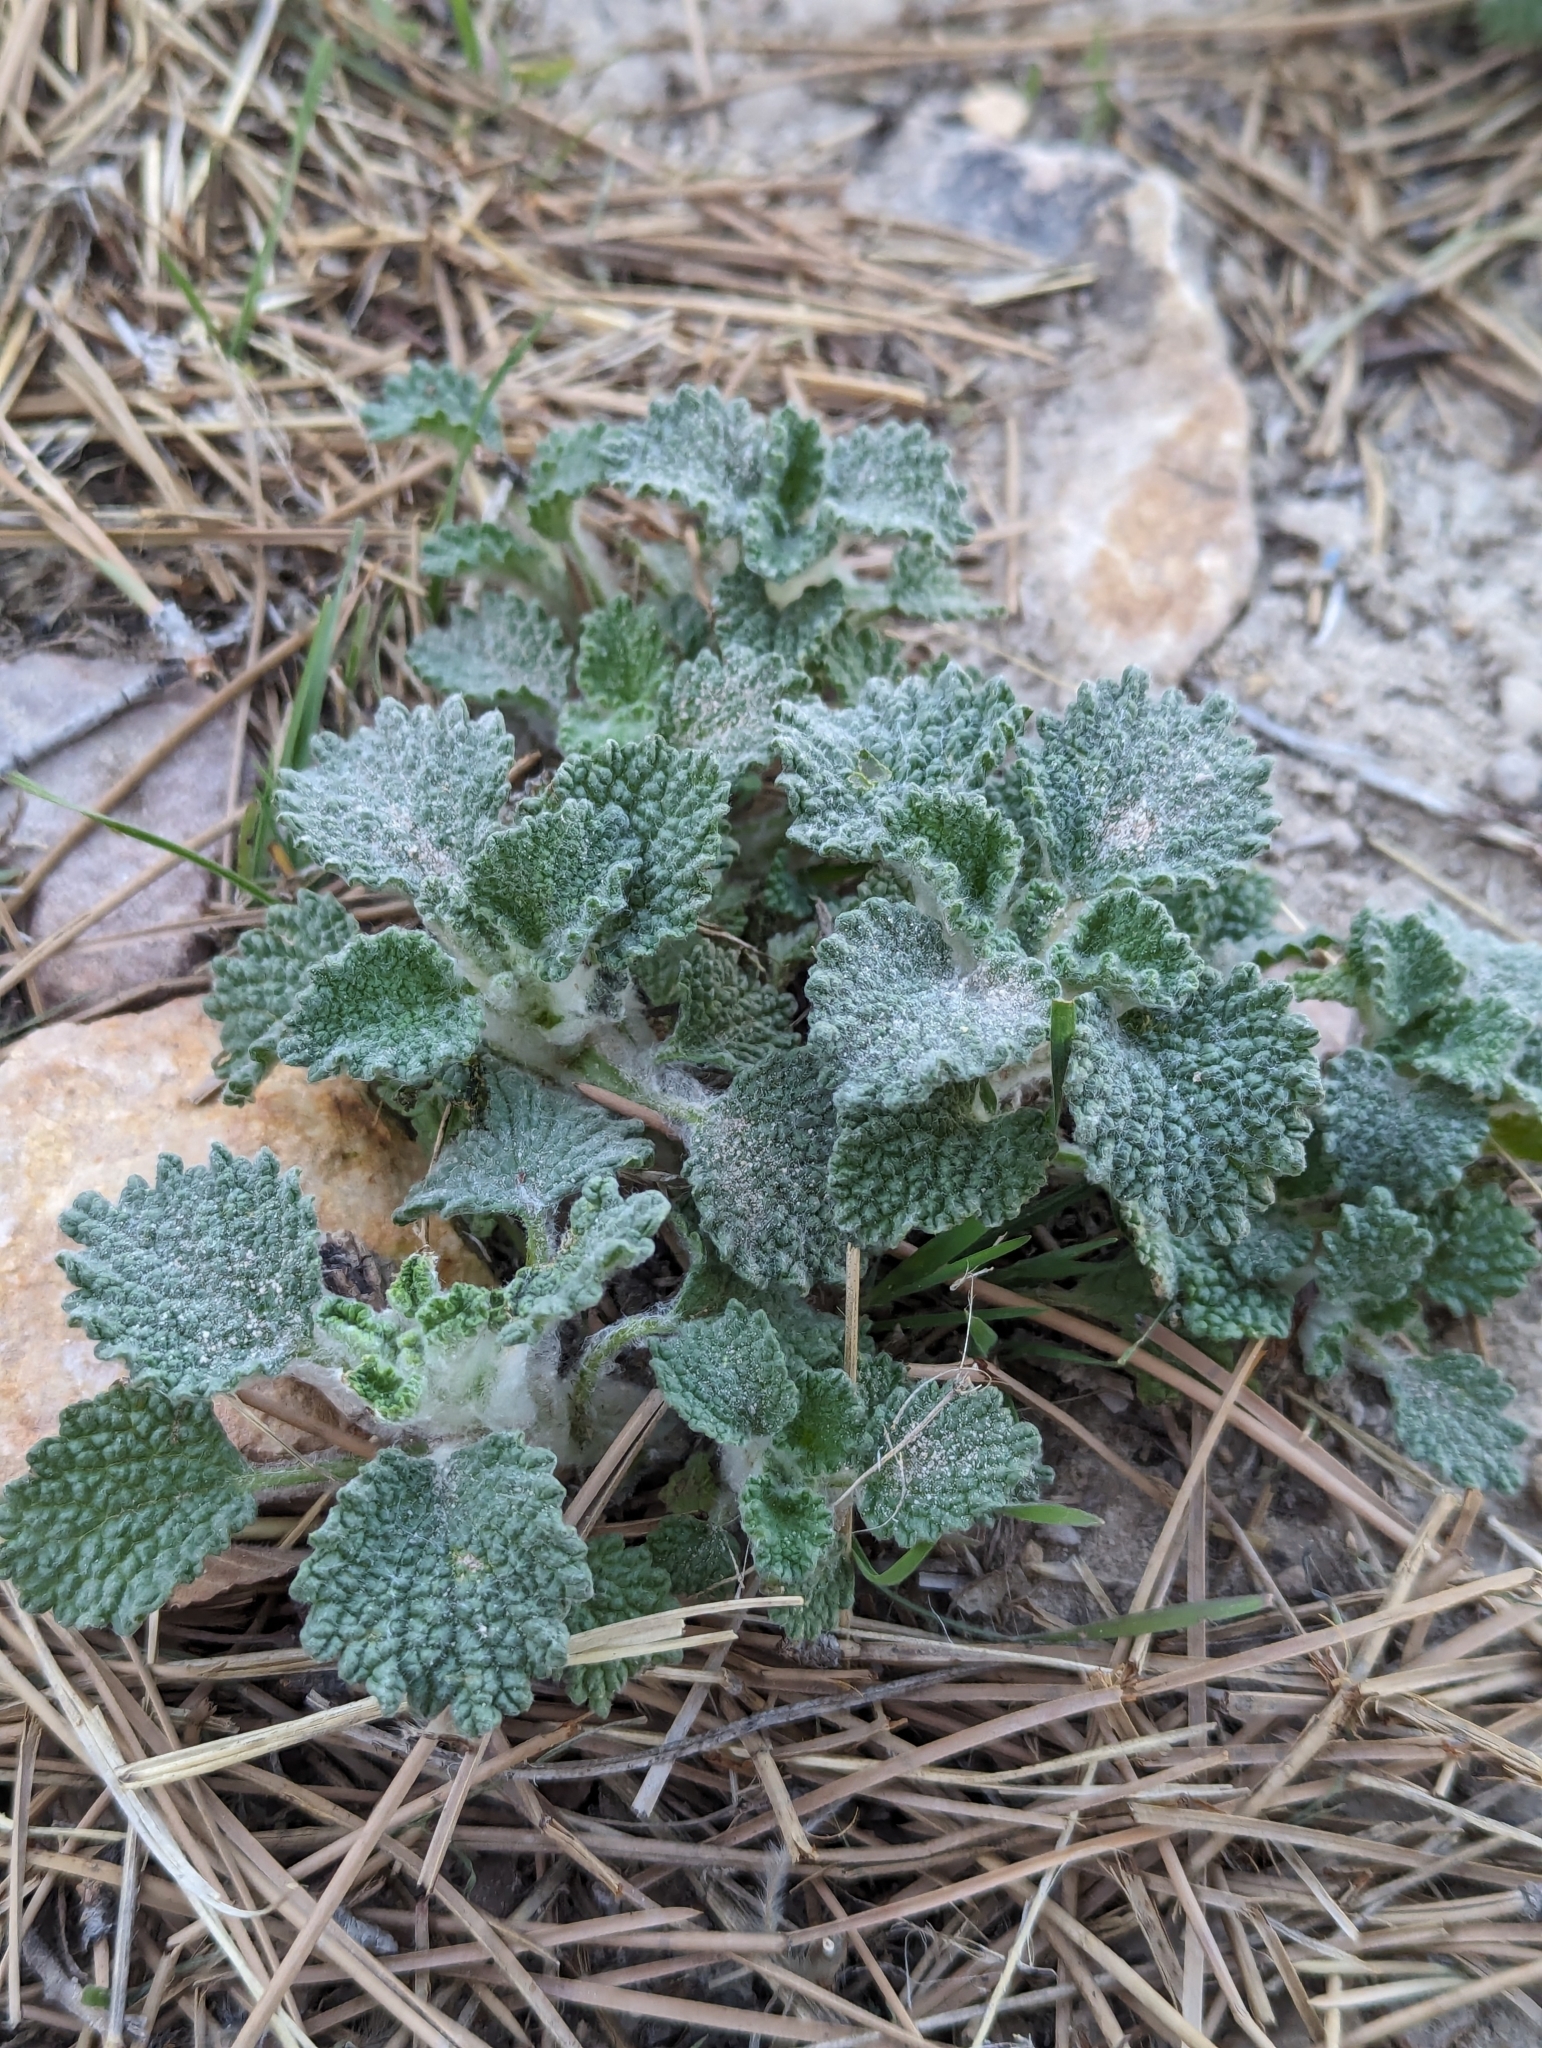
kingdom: Plantae
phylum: Tracheophyta
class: Magnoliopsida
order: Lamiales
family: Lamiaceae
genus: Marrubium
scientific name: Marrubium vulgare
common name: Horehound
